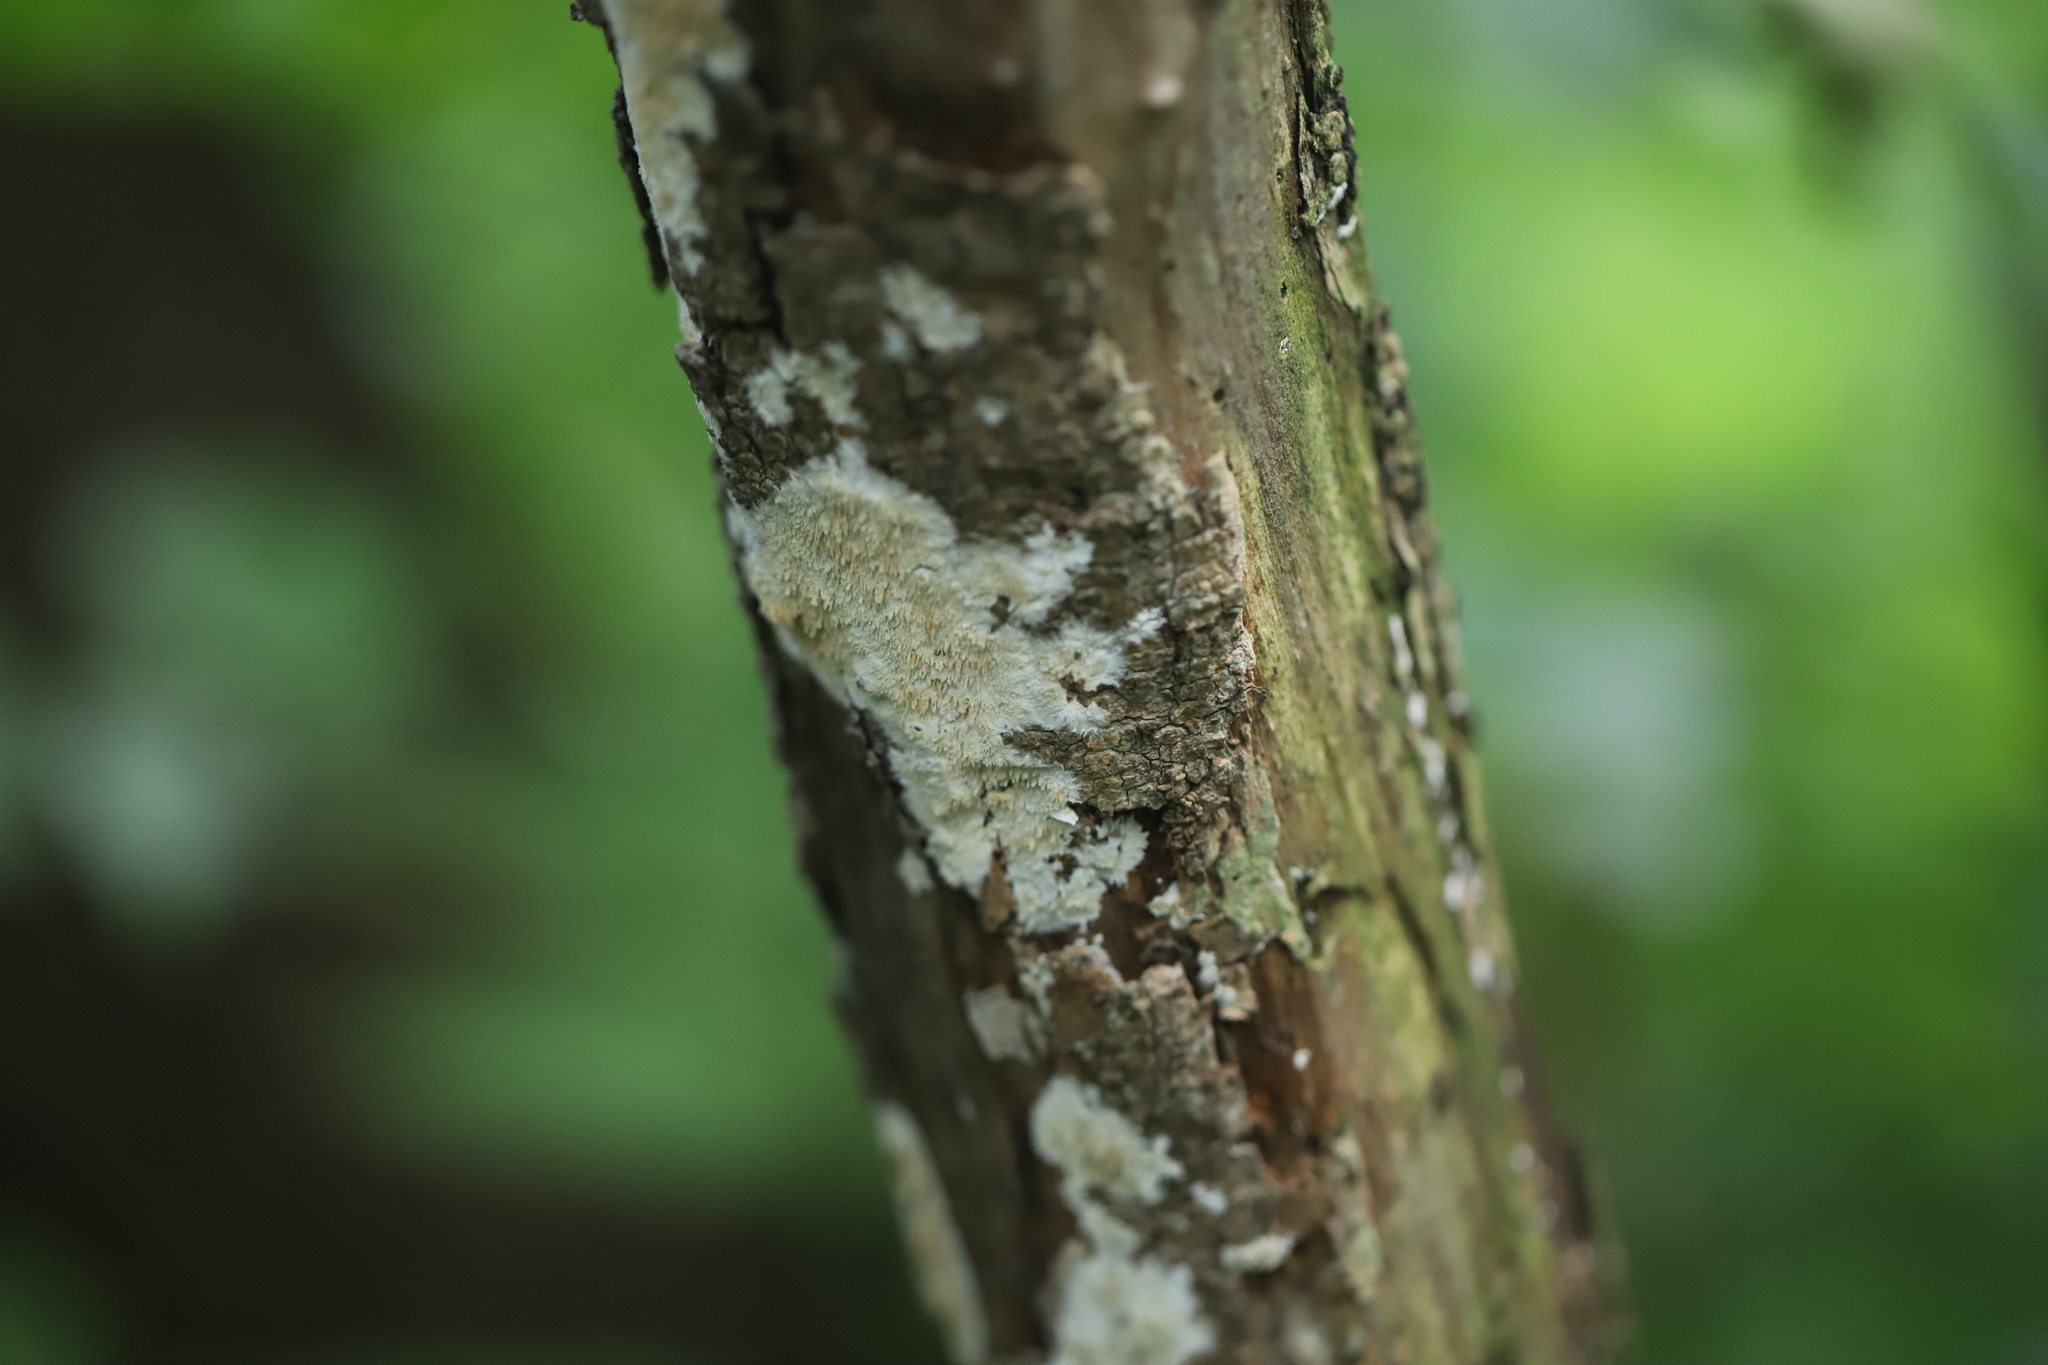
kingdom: Fungi
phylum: Basidiomycota
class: Agaricomycetes
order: Polyporales
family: Irpicaceae
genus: Irpex
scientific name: Irpex lacteus
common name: Milk-white toothed polypore
